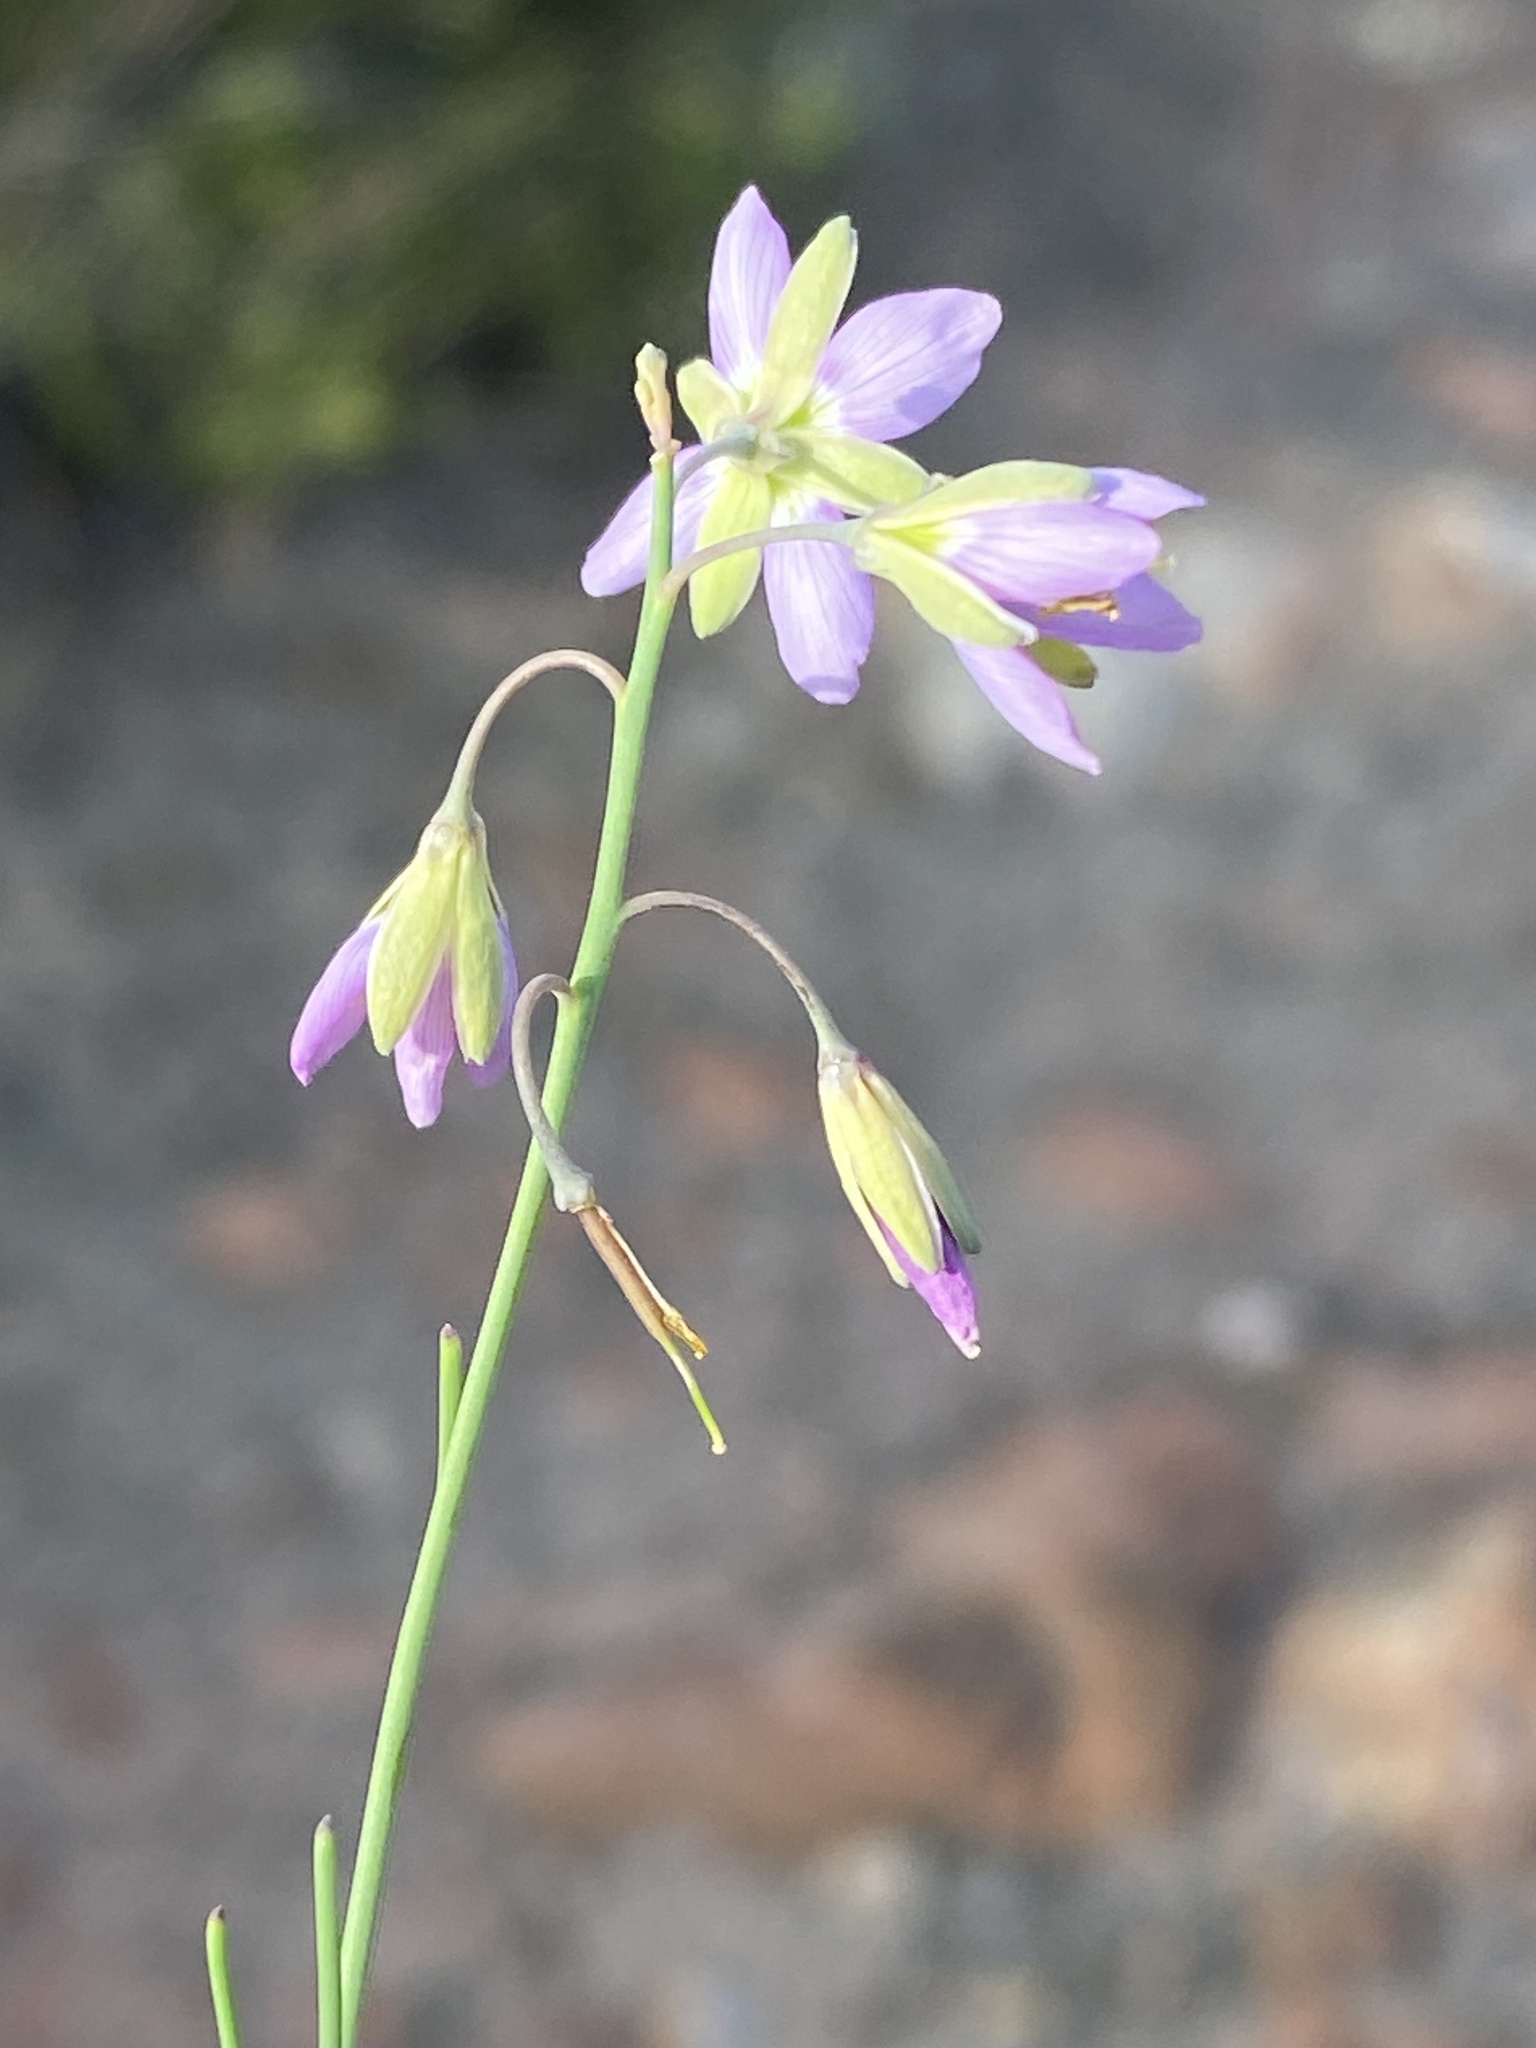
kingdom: Plantae
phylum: Tracheophyta
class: Magnoliopsida
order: Brassicales
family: Brassicaceae
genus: Heliophila
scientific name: Heliophila cornuta
